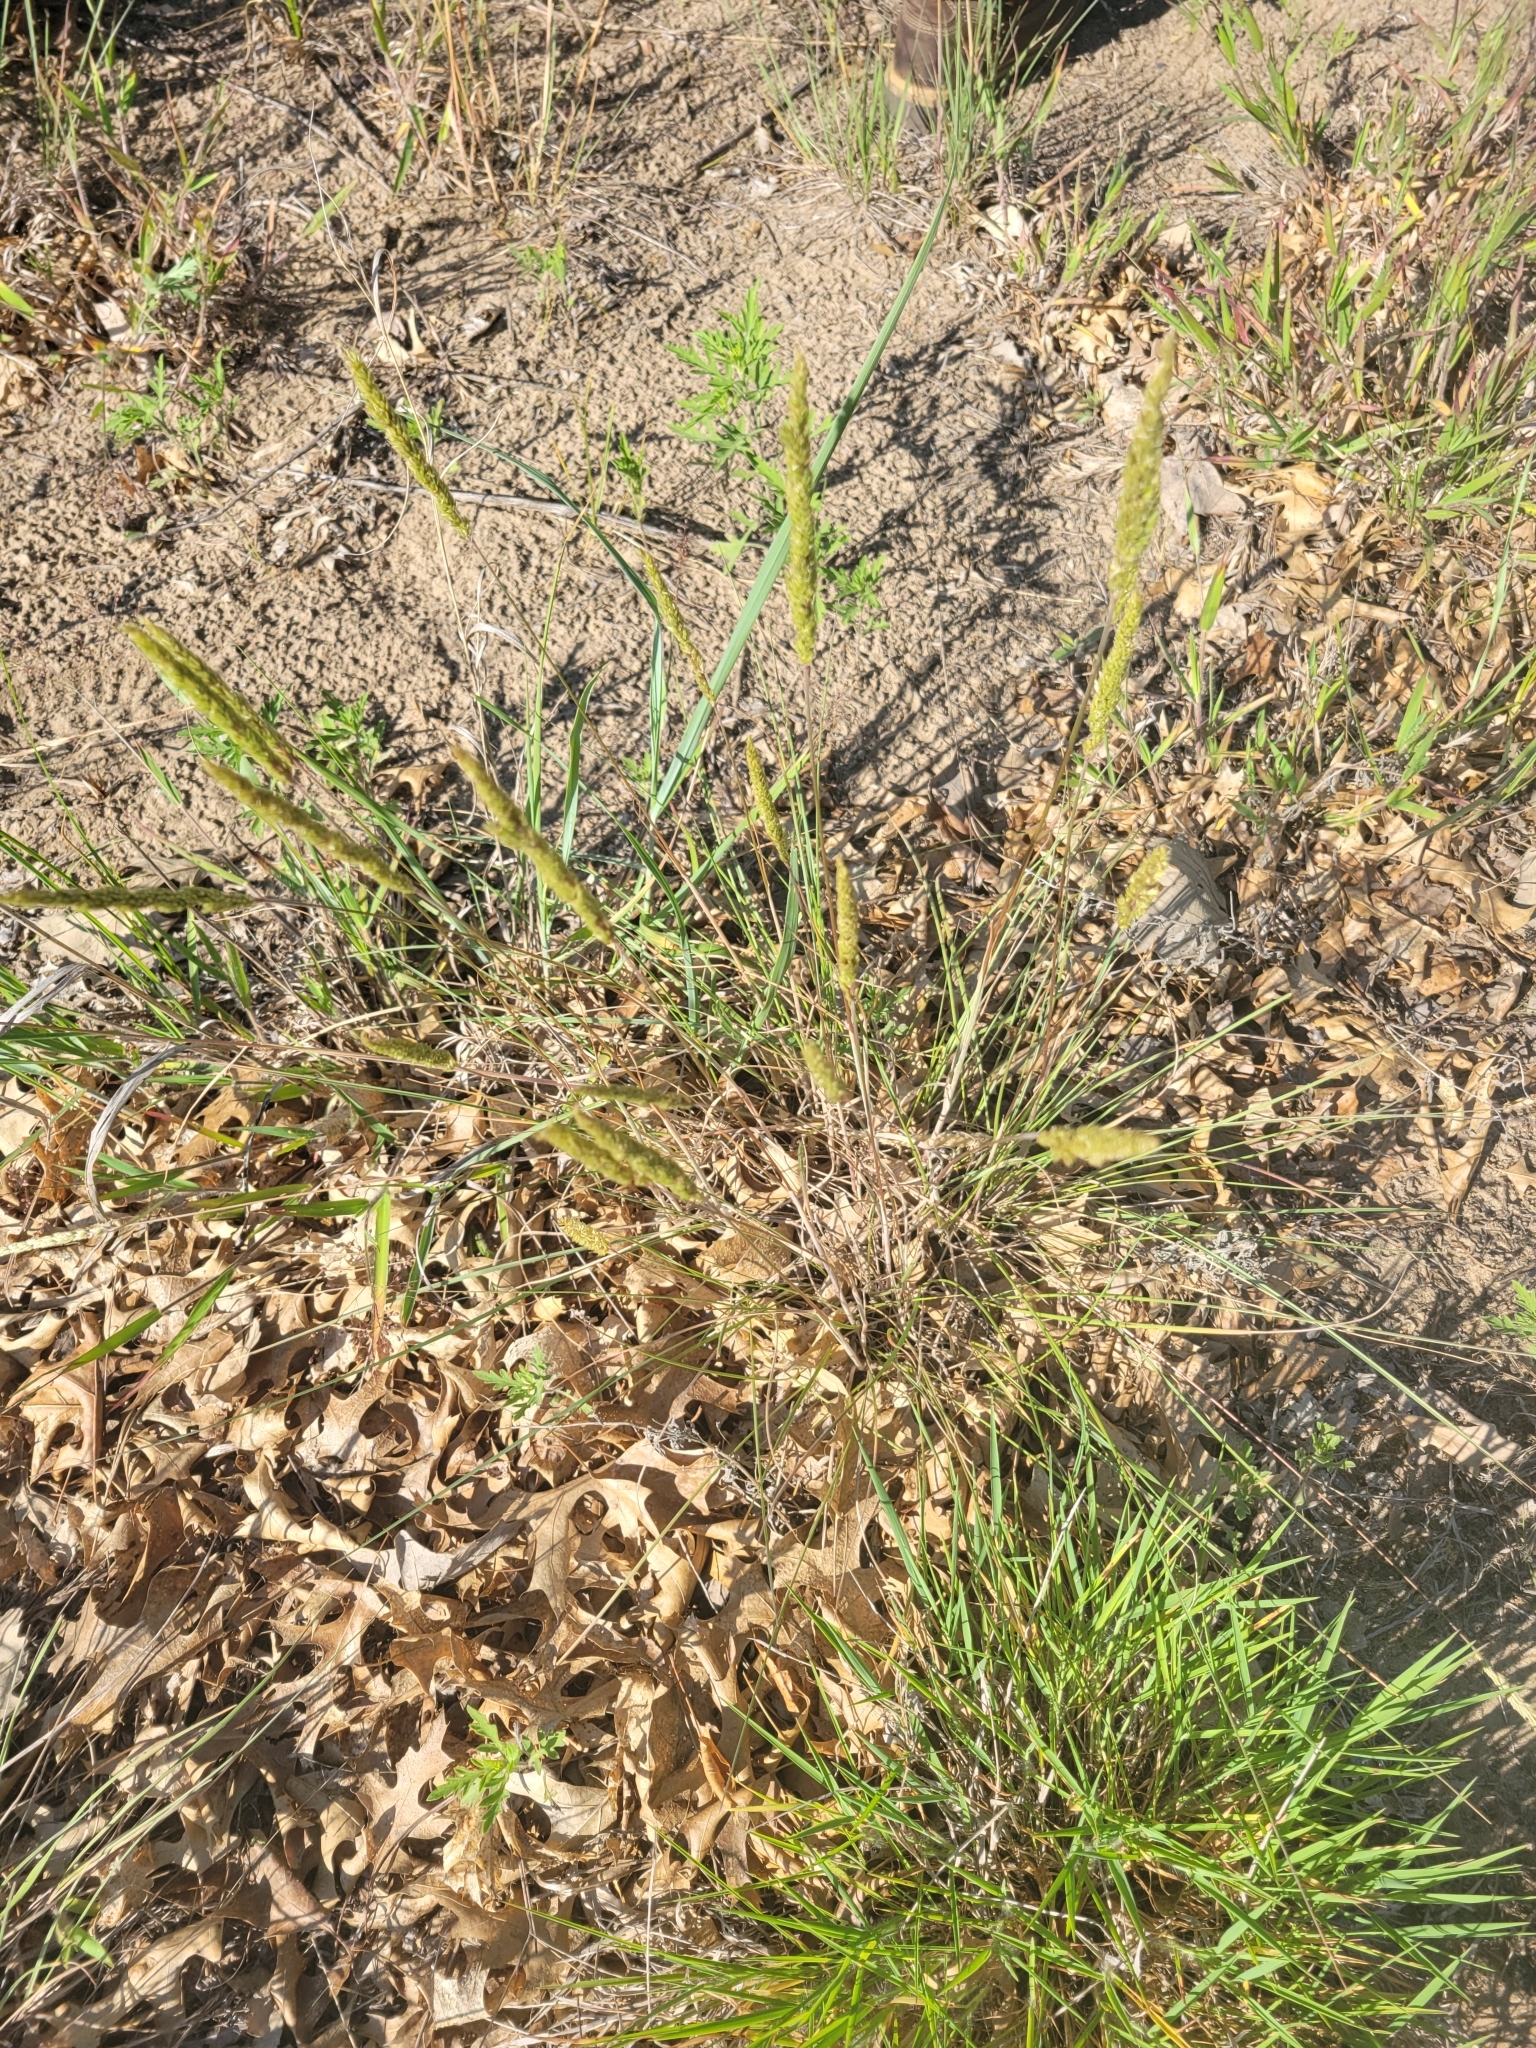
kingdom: Plantae
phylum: Tracheophyta
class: Liliopsida
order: Poales
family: Poaceae
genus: Koeleria
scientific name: Koeleria macrantha
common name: Crested hair-grass
